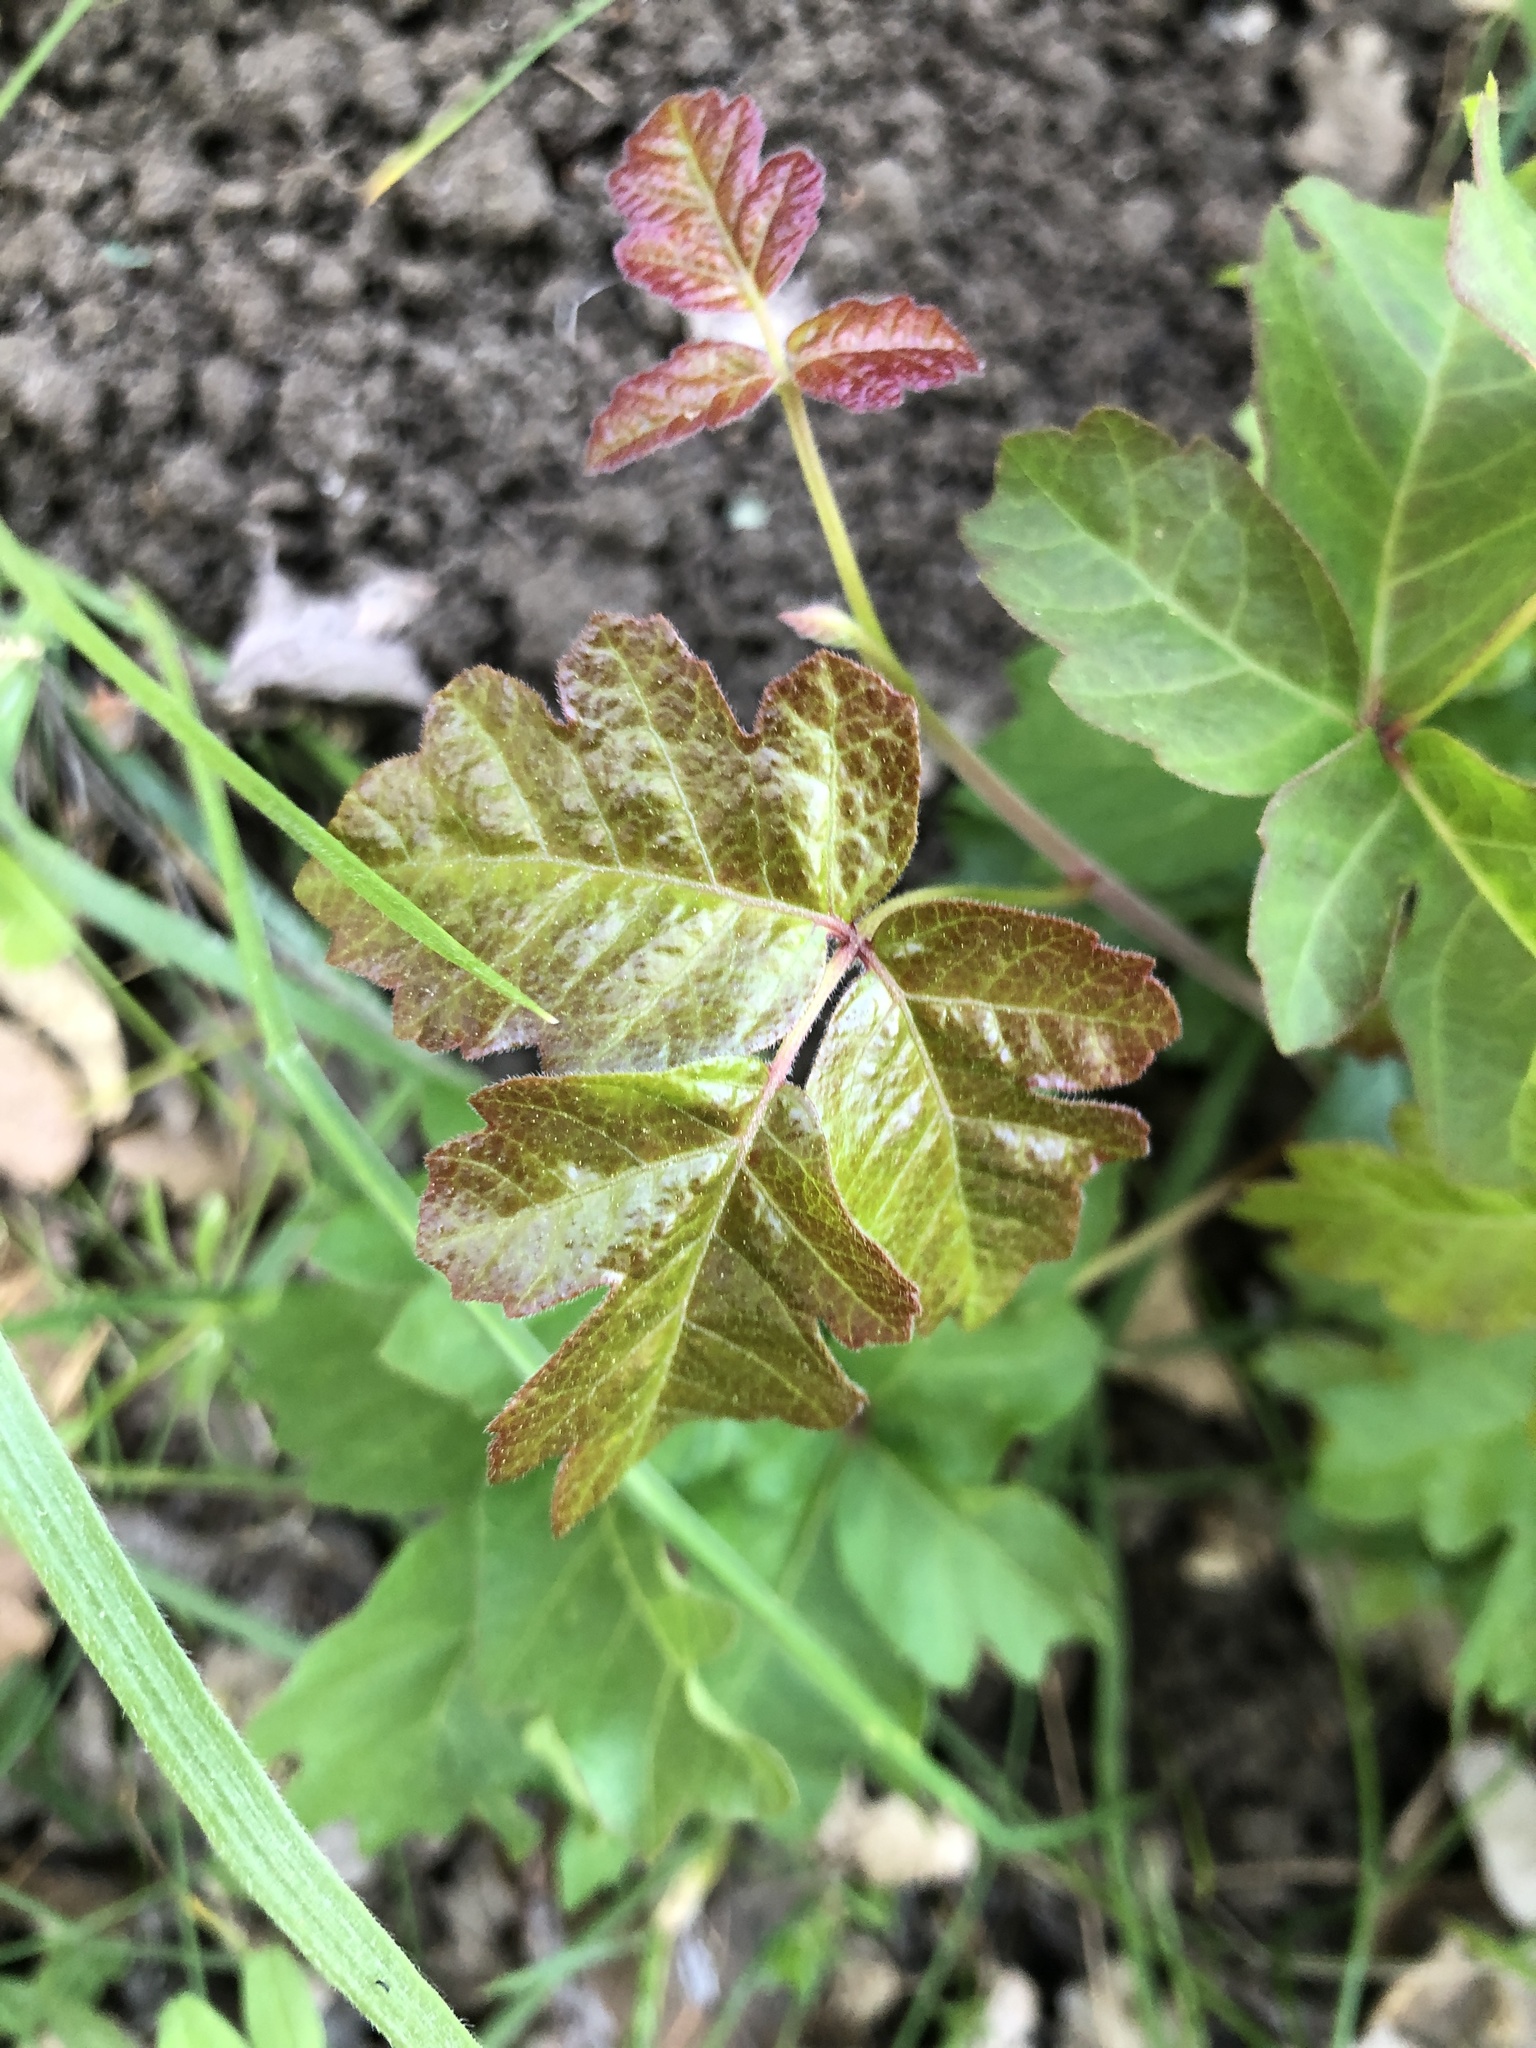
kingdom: Plantae
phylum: Tracheophyta
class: Magnoliopsida
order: Sapindales
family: Anacardiaceae
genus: Toxicodendron
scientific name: Toxicodendron diversilobum
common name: Pacific poison-oak
